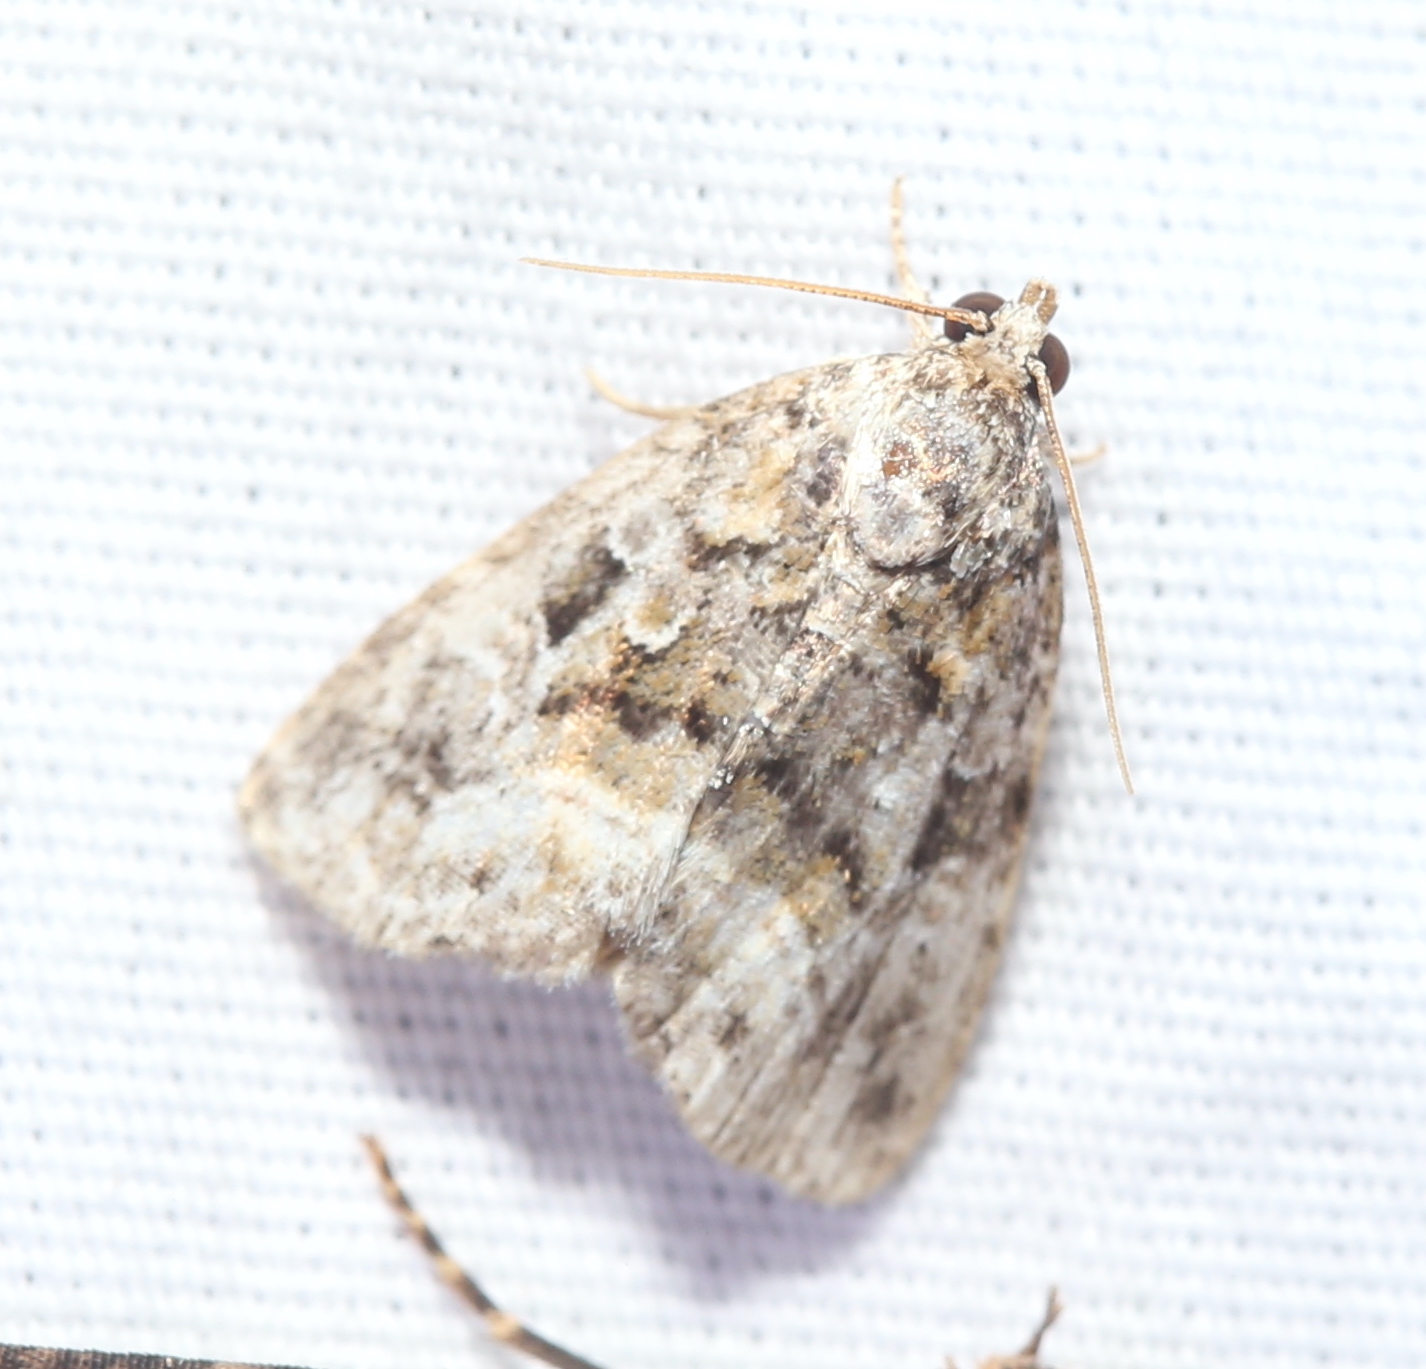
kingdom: Animalia
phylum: Arthropoda
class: Insecta
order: Lepidoptera
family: Noctuidae
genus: Protodeltote
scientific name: Protodeltote muscosula
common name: Large mossy glyph
